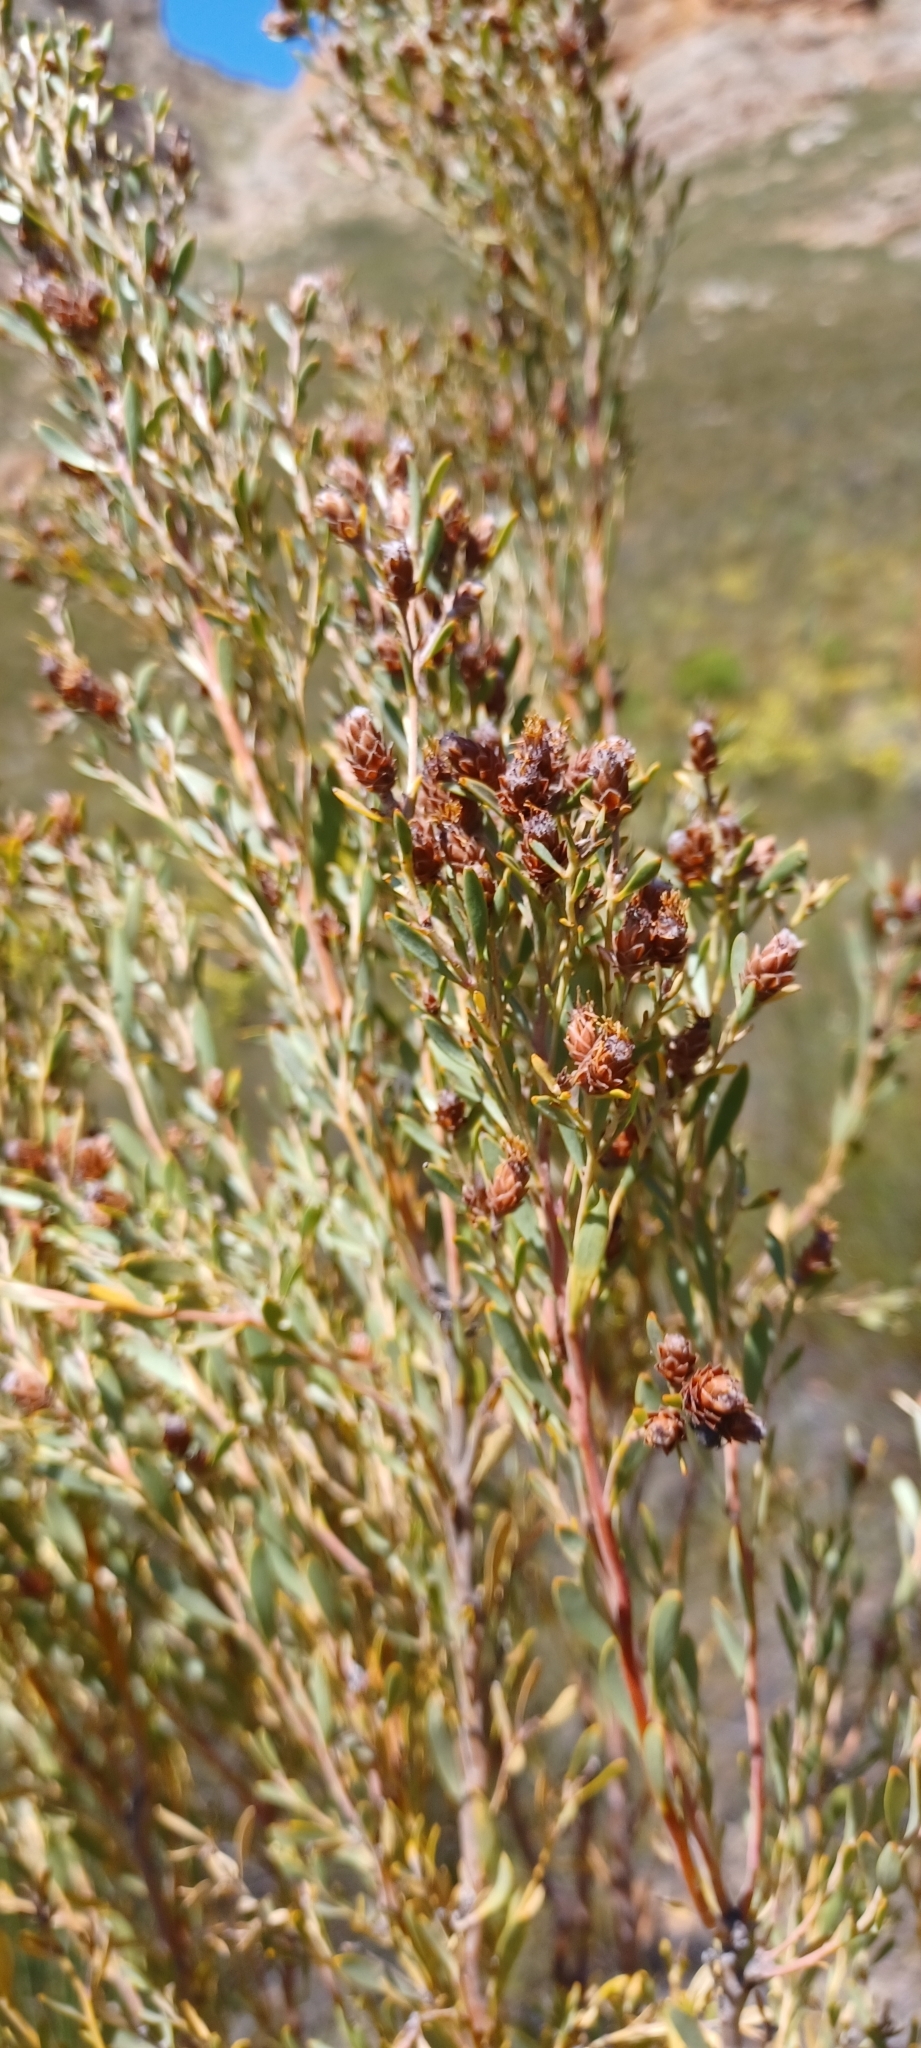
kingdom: Plantae
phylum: Tracheophyta
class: Magnoliopsida
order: Proteales
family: Proteaceae
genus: Leucadendron
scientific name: Leucadendron rubrum
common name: Spinning top
